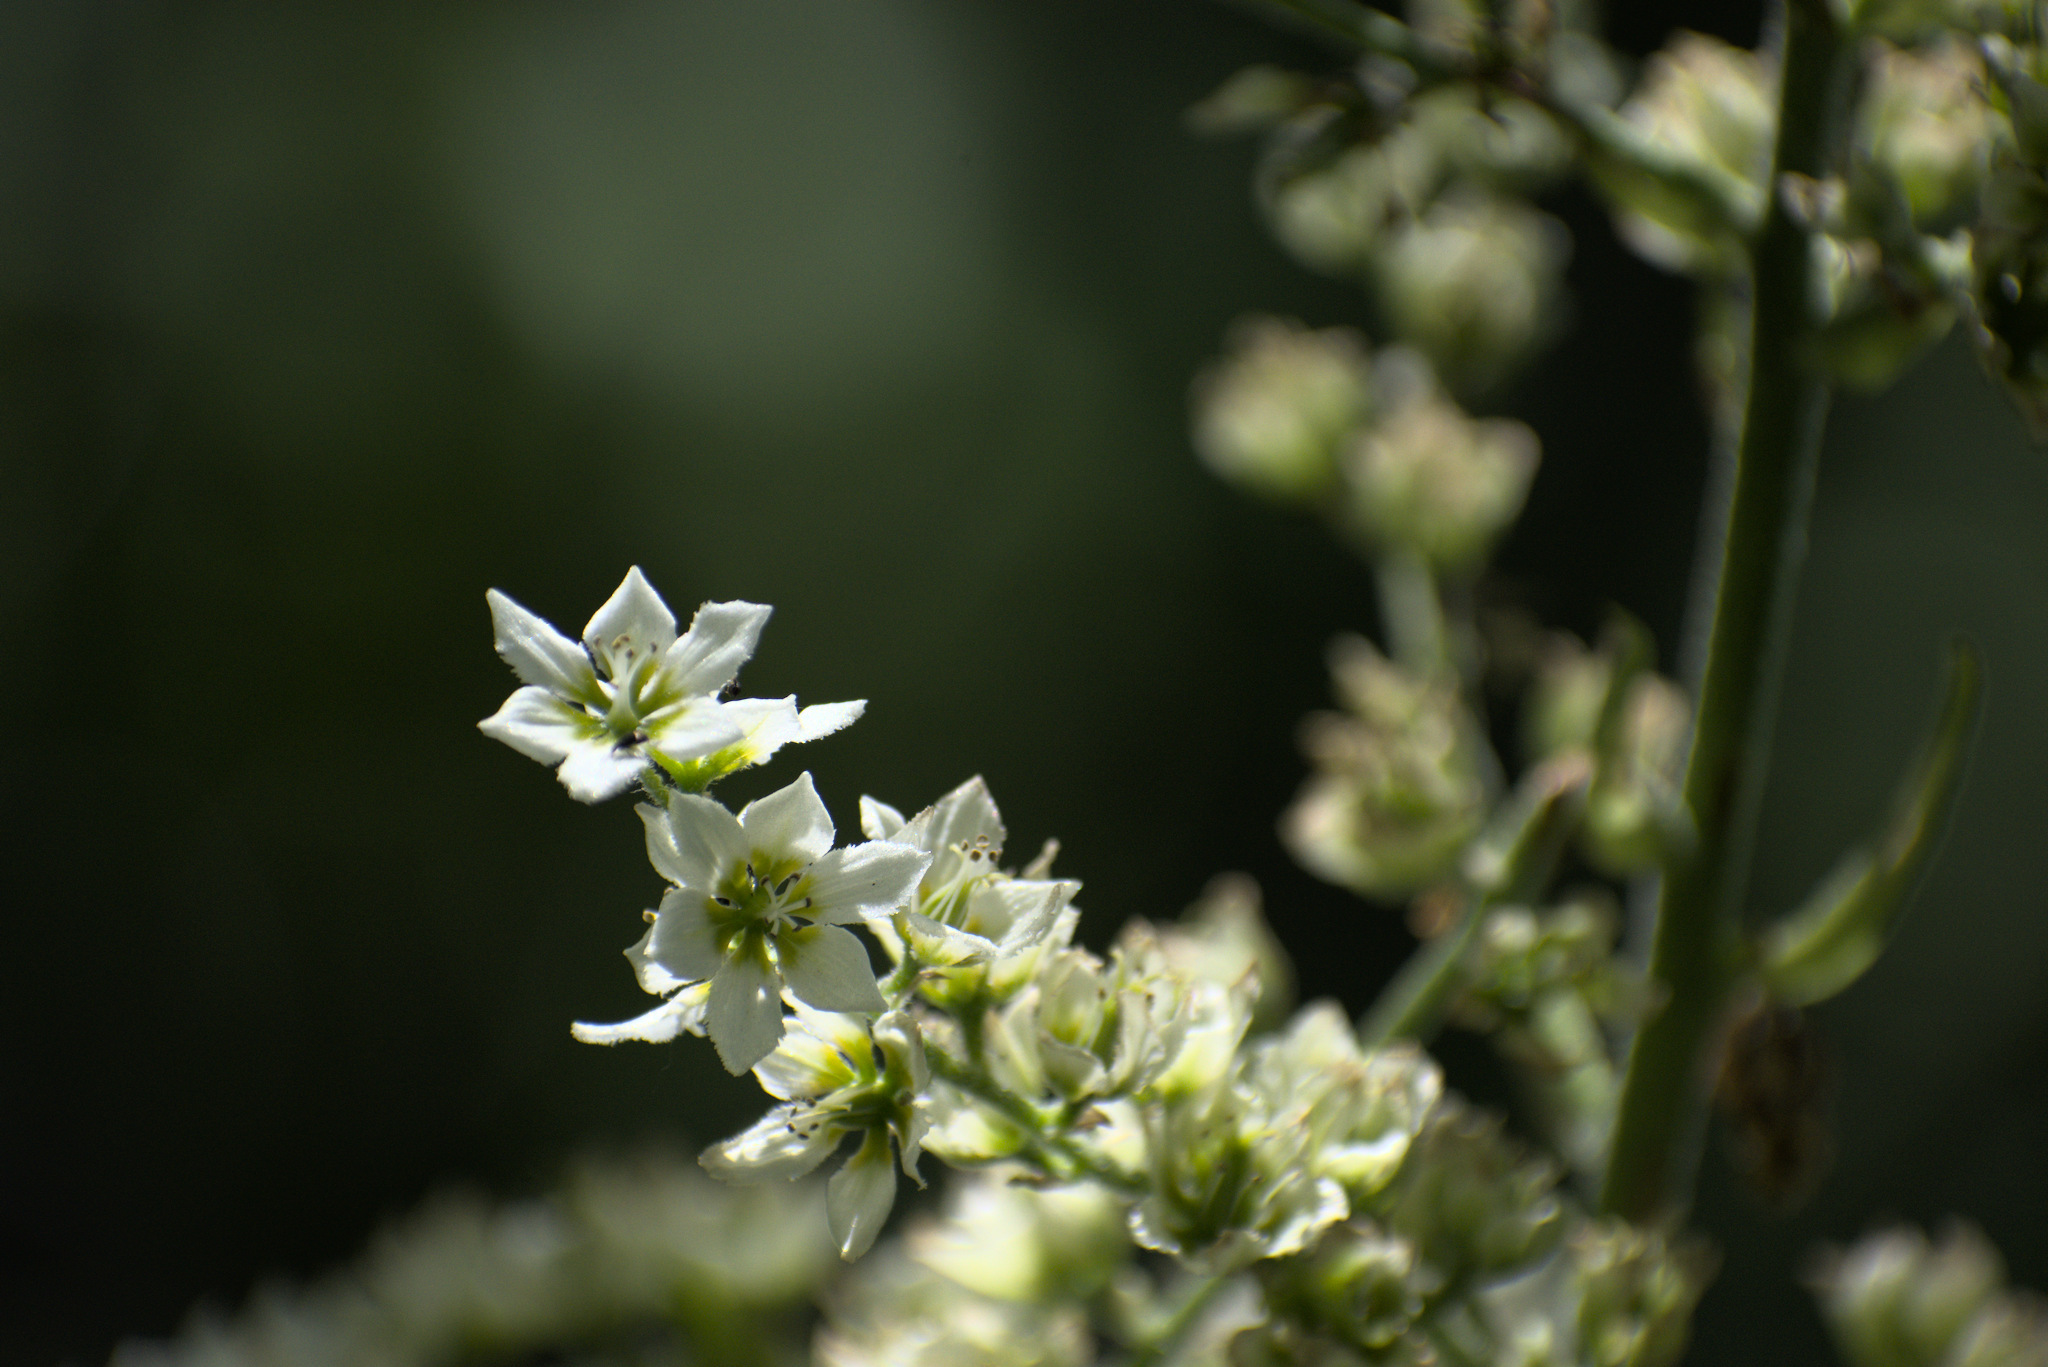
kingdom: Plantae
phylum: Tracheophyta
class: Liliopsida
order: Liliales
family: Melanthiaceae
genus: Veratrum
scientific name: Veratrum californicum
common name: California veratrum
